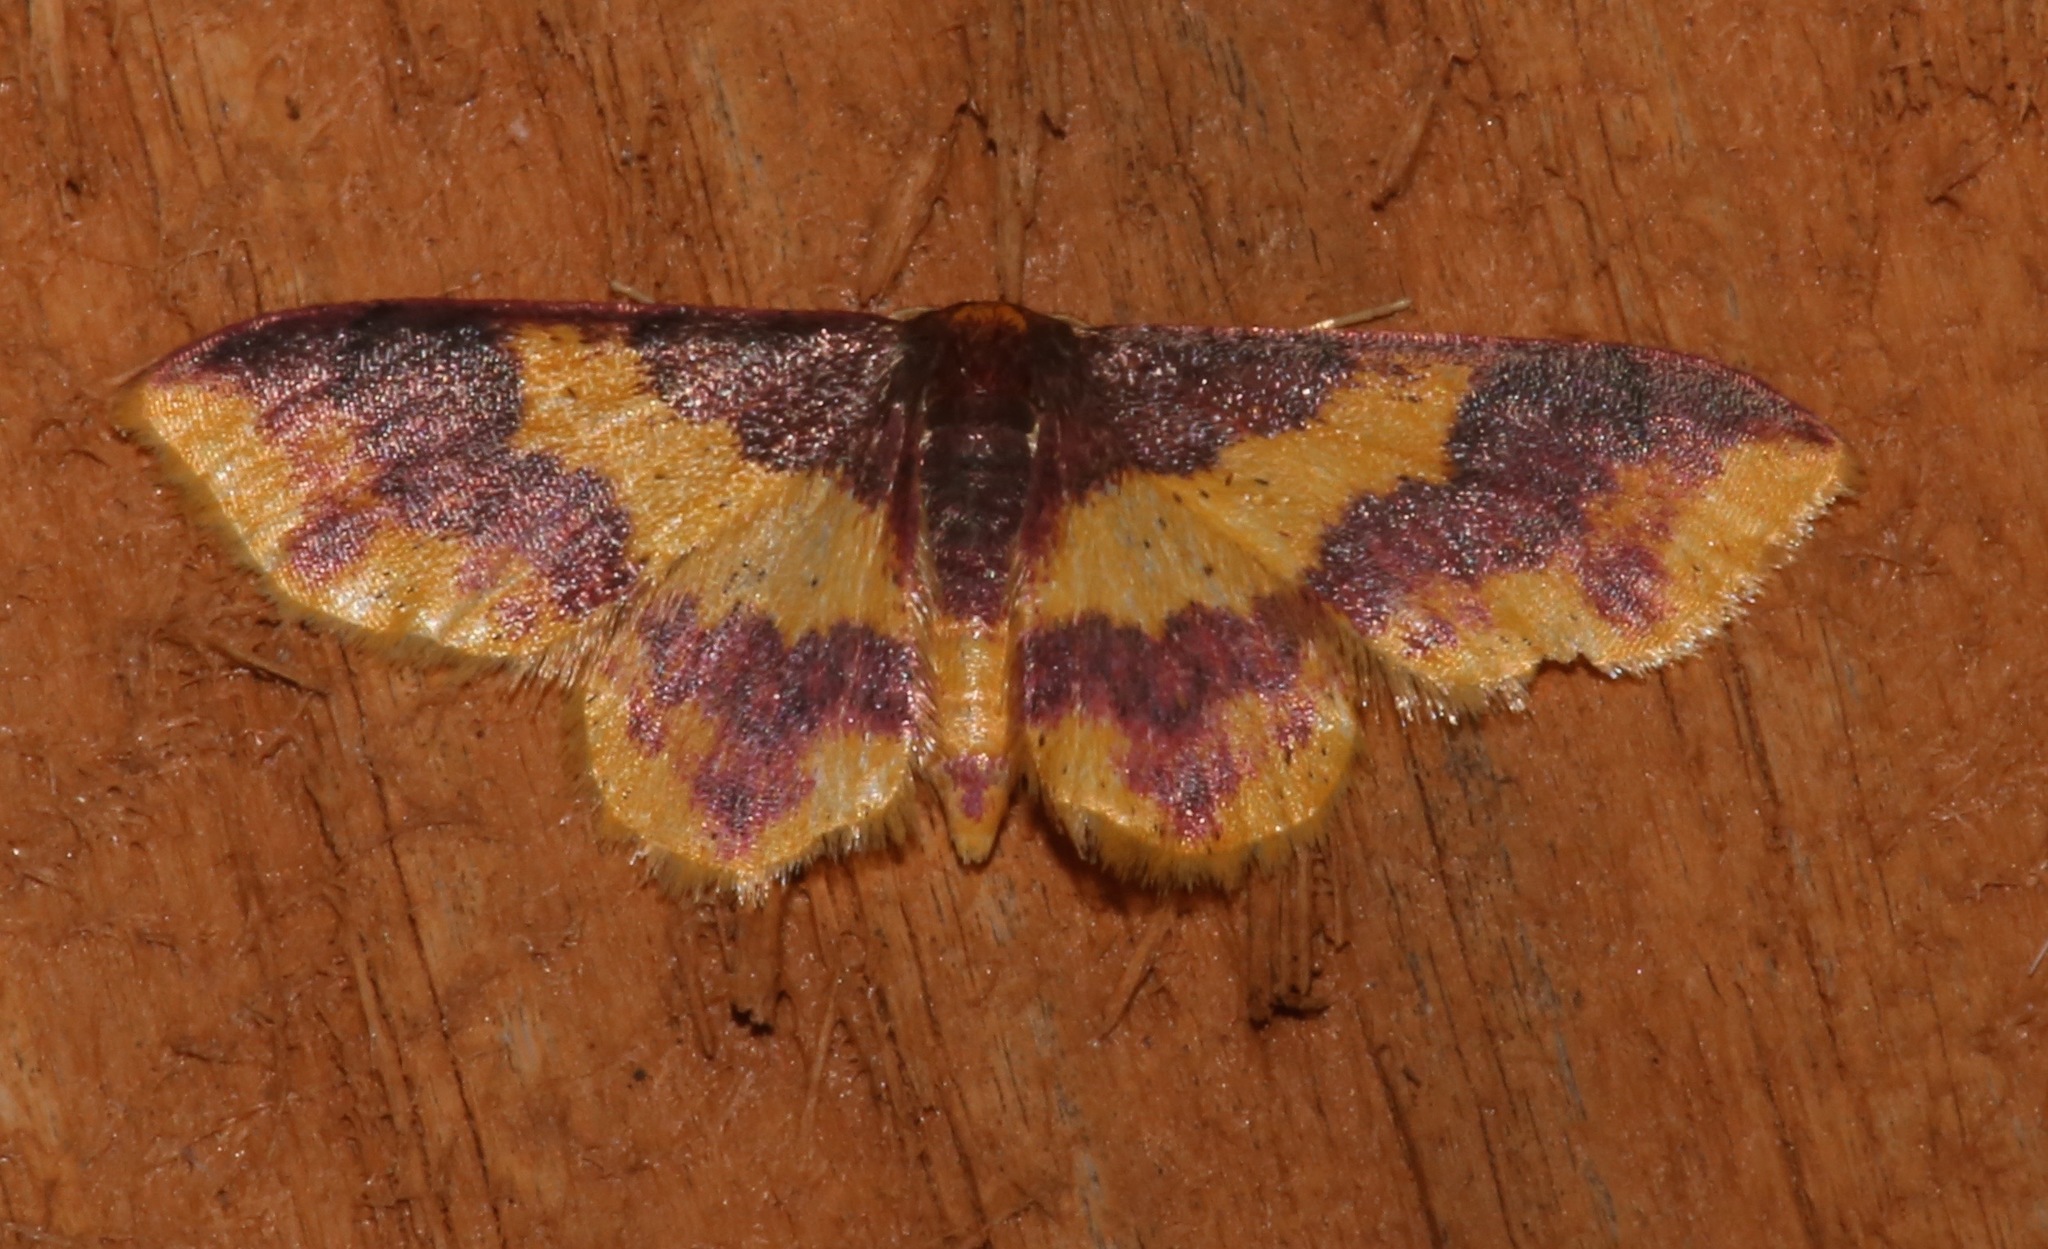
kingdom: Animalia
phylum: Arthropoda
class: Insecta
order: Lepidoptera
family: Geometridae
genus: Lophosis
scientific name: Lophosis labeculata
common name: Stained lophosis moth
